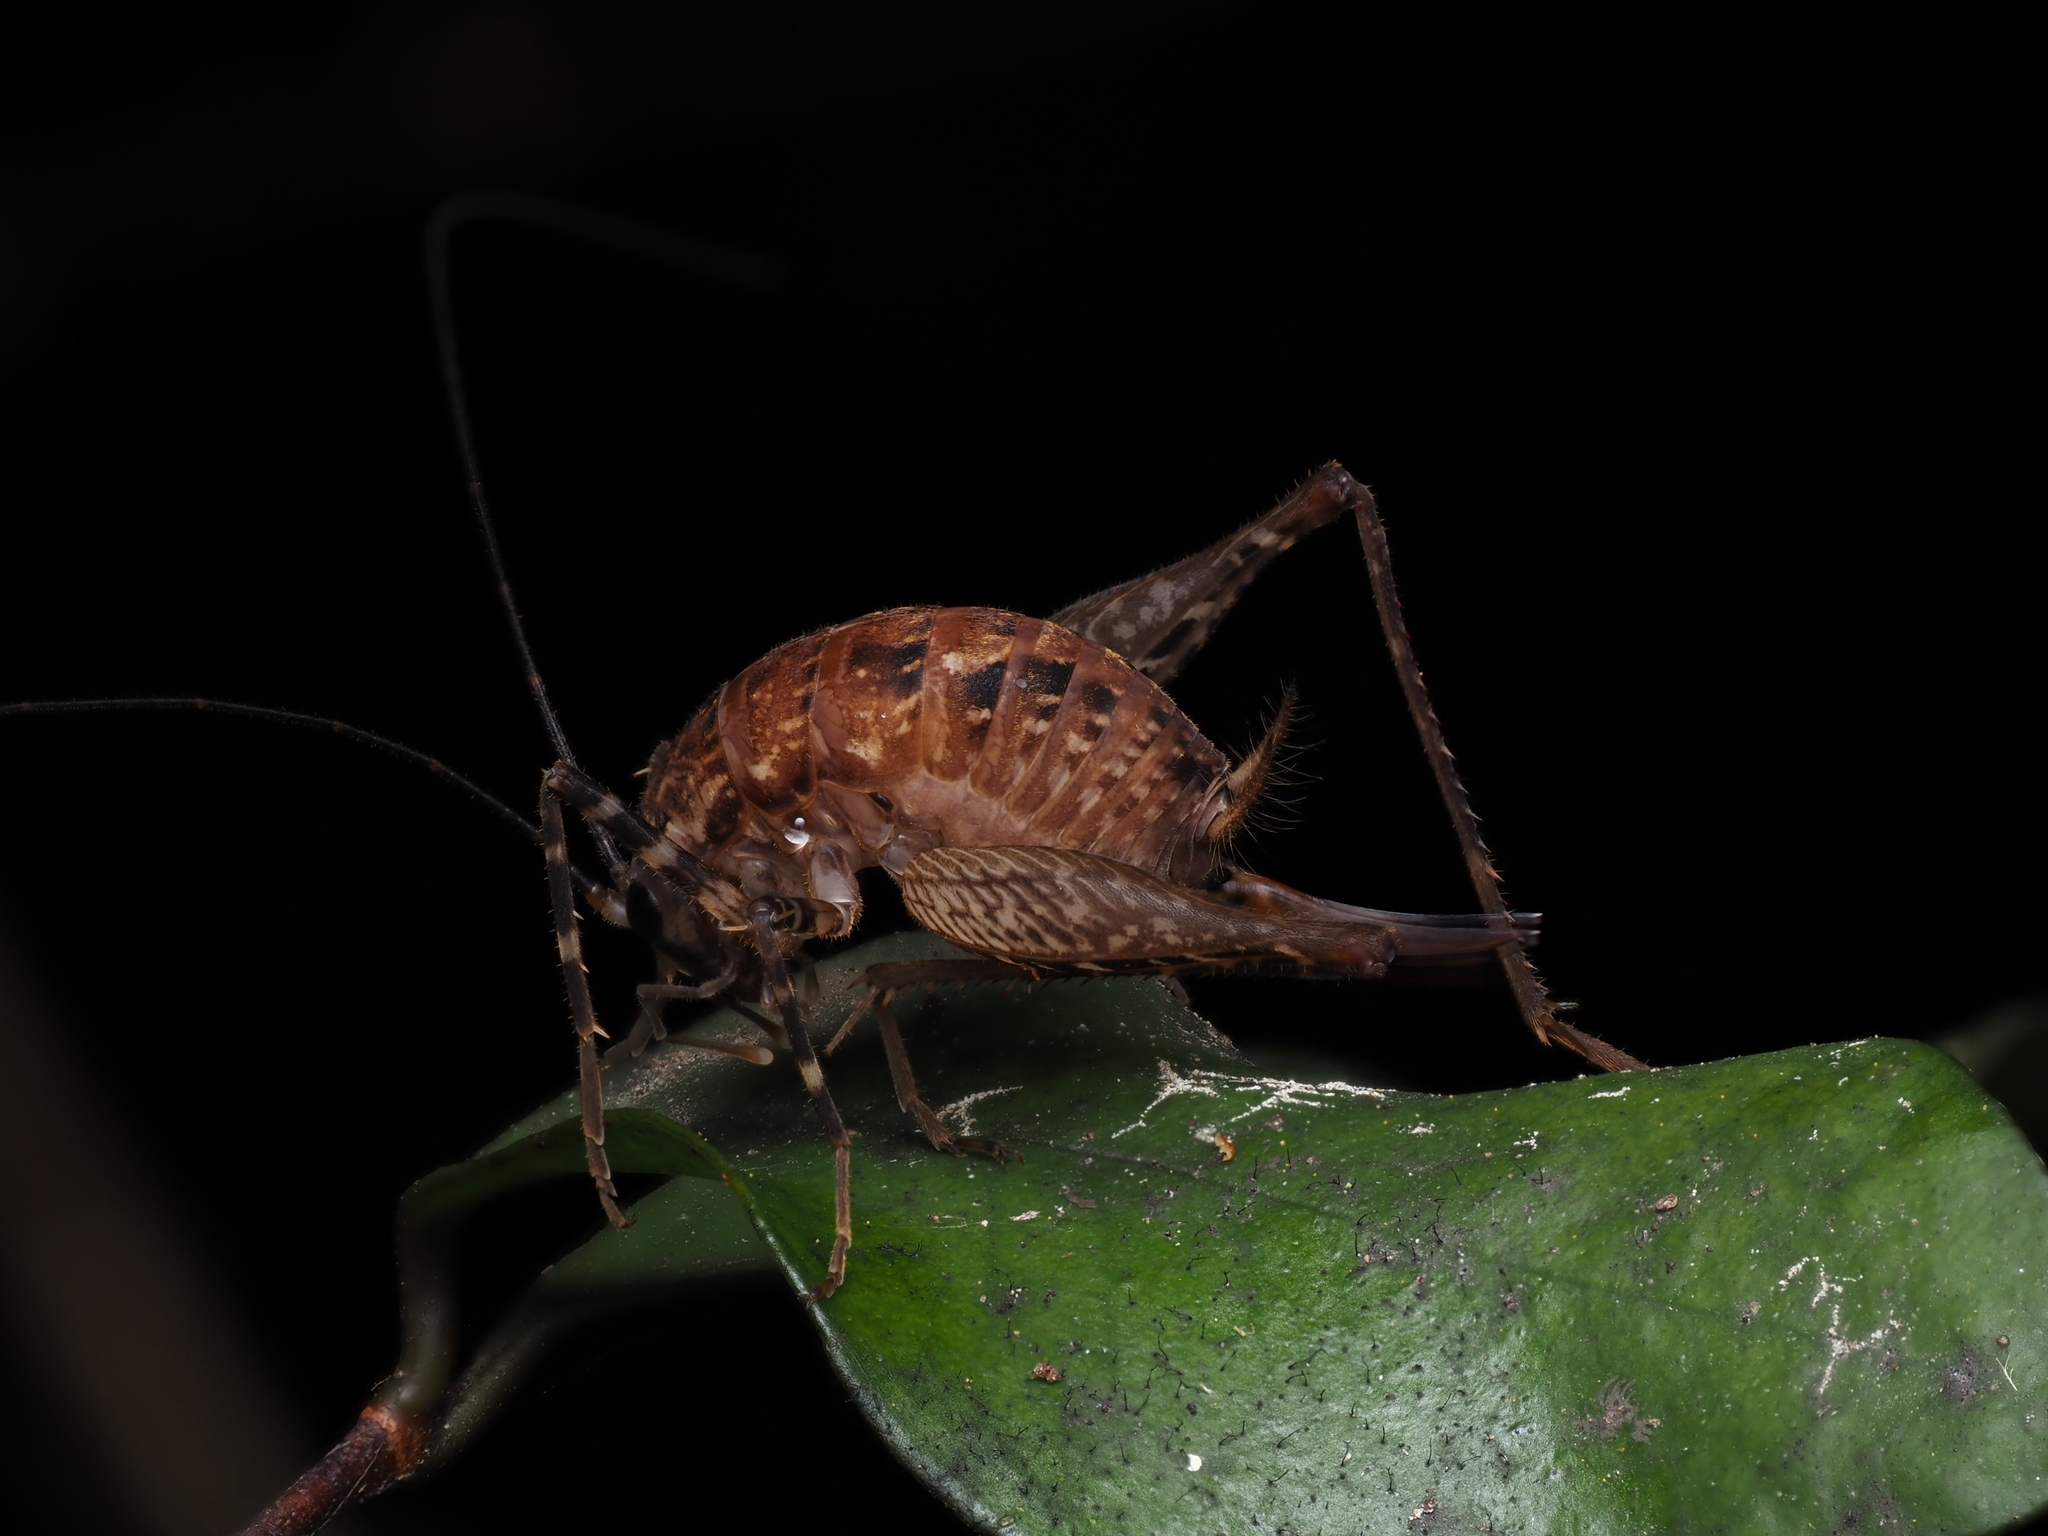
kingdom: Animalia
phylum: Arthropoda
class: Insecta
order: Orthoptera
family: Rhaphidophoridae
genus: Pleioplectron
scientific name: Pleioplectron hudsoni
